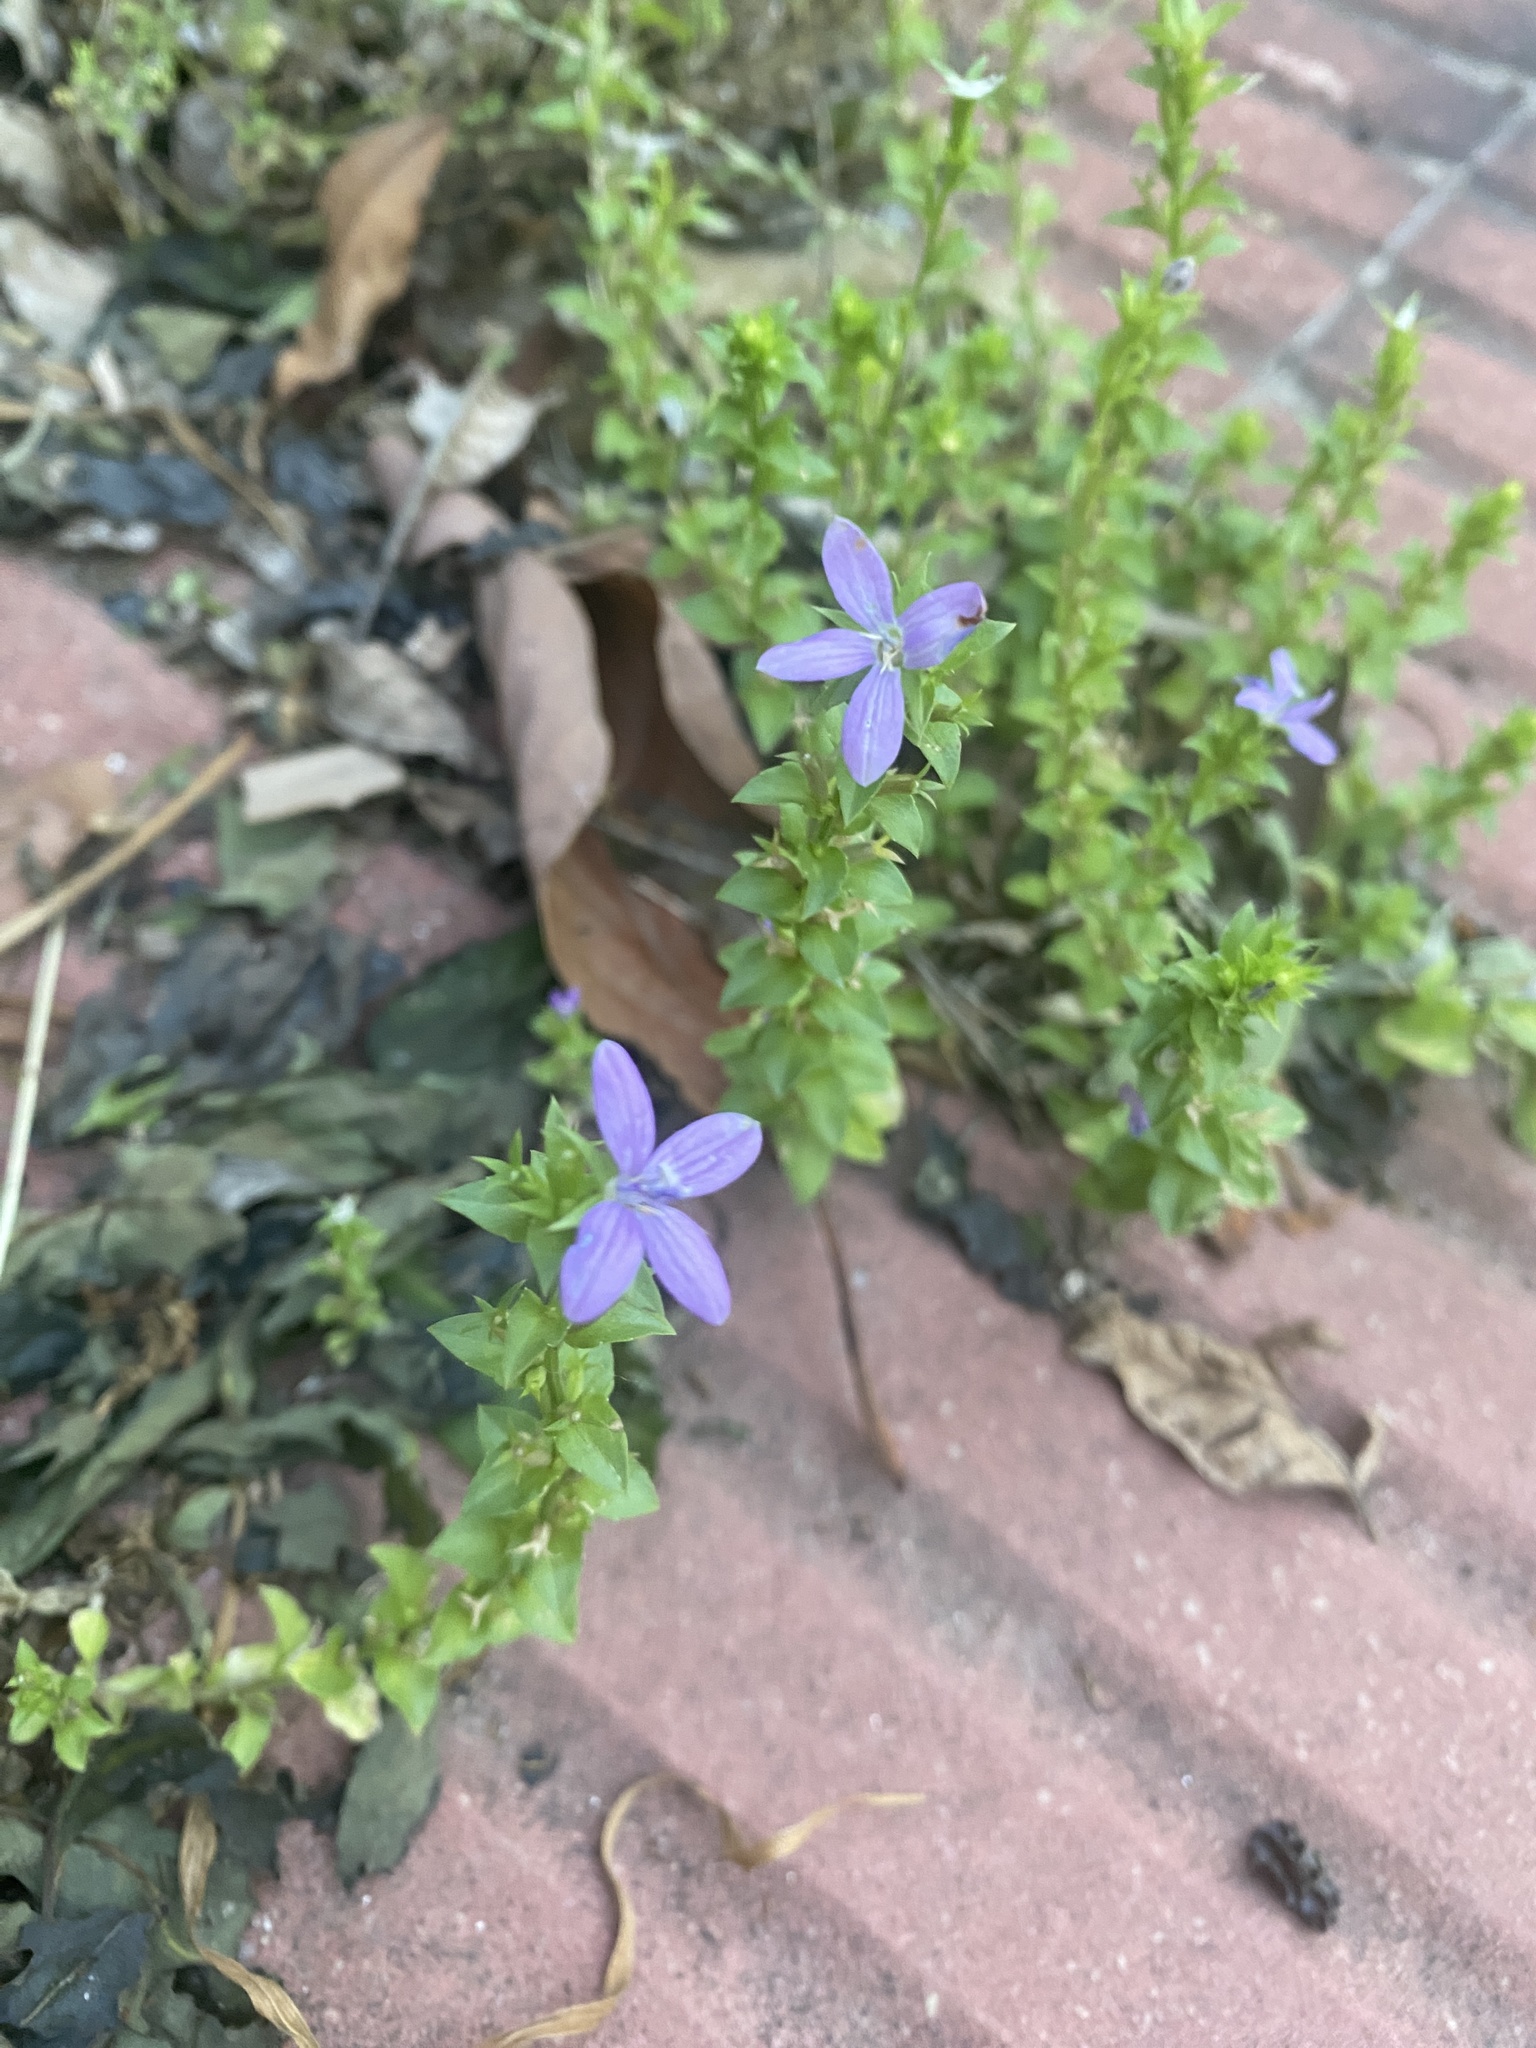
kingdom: Plantae
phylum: Tracheophyta
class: Magnoliopsida
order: Asterales
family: Campanulaceae
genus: Triodanis
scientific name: Triodanis biflora
